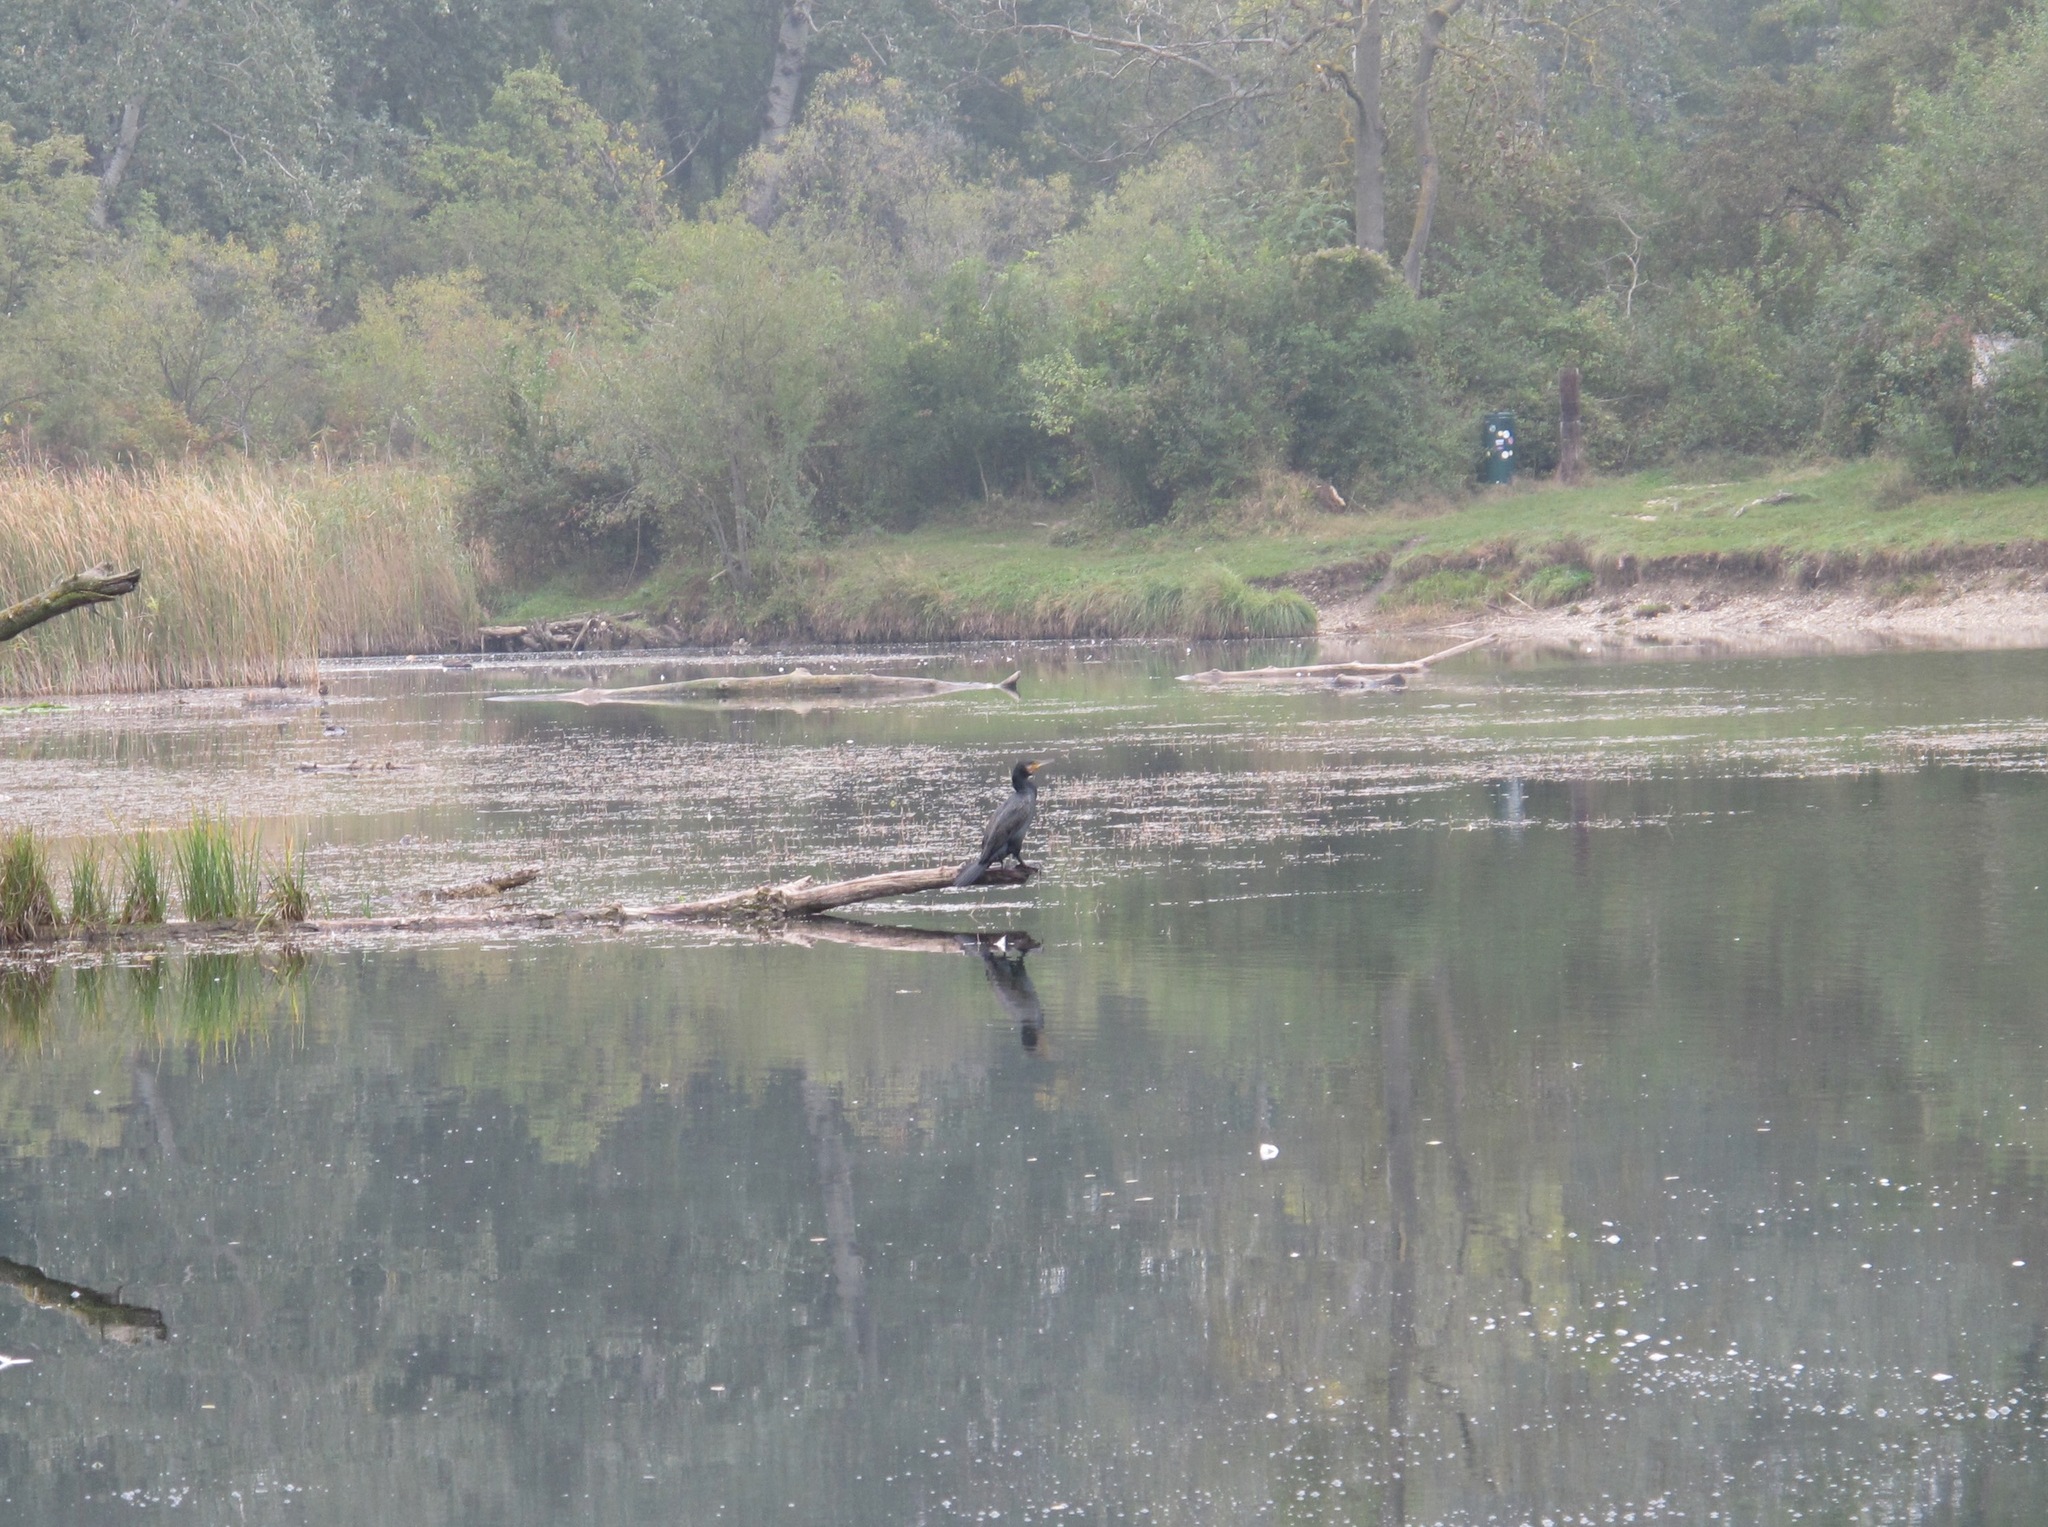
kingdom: Animalia
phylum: Chordata
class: Aves
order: Suliformes
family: Phalacrocoracidae
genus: Phalacrocorax
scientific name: Phalacrocorax carbo
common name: Great cormorant
